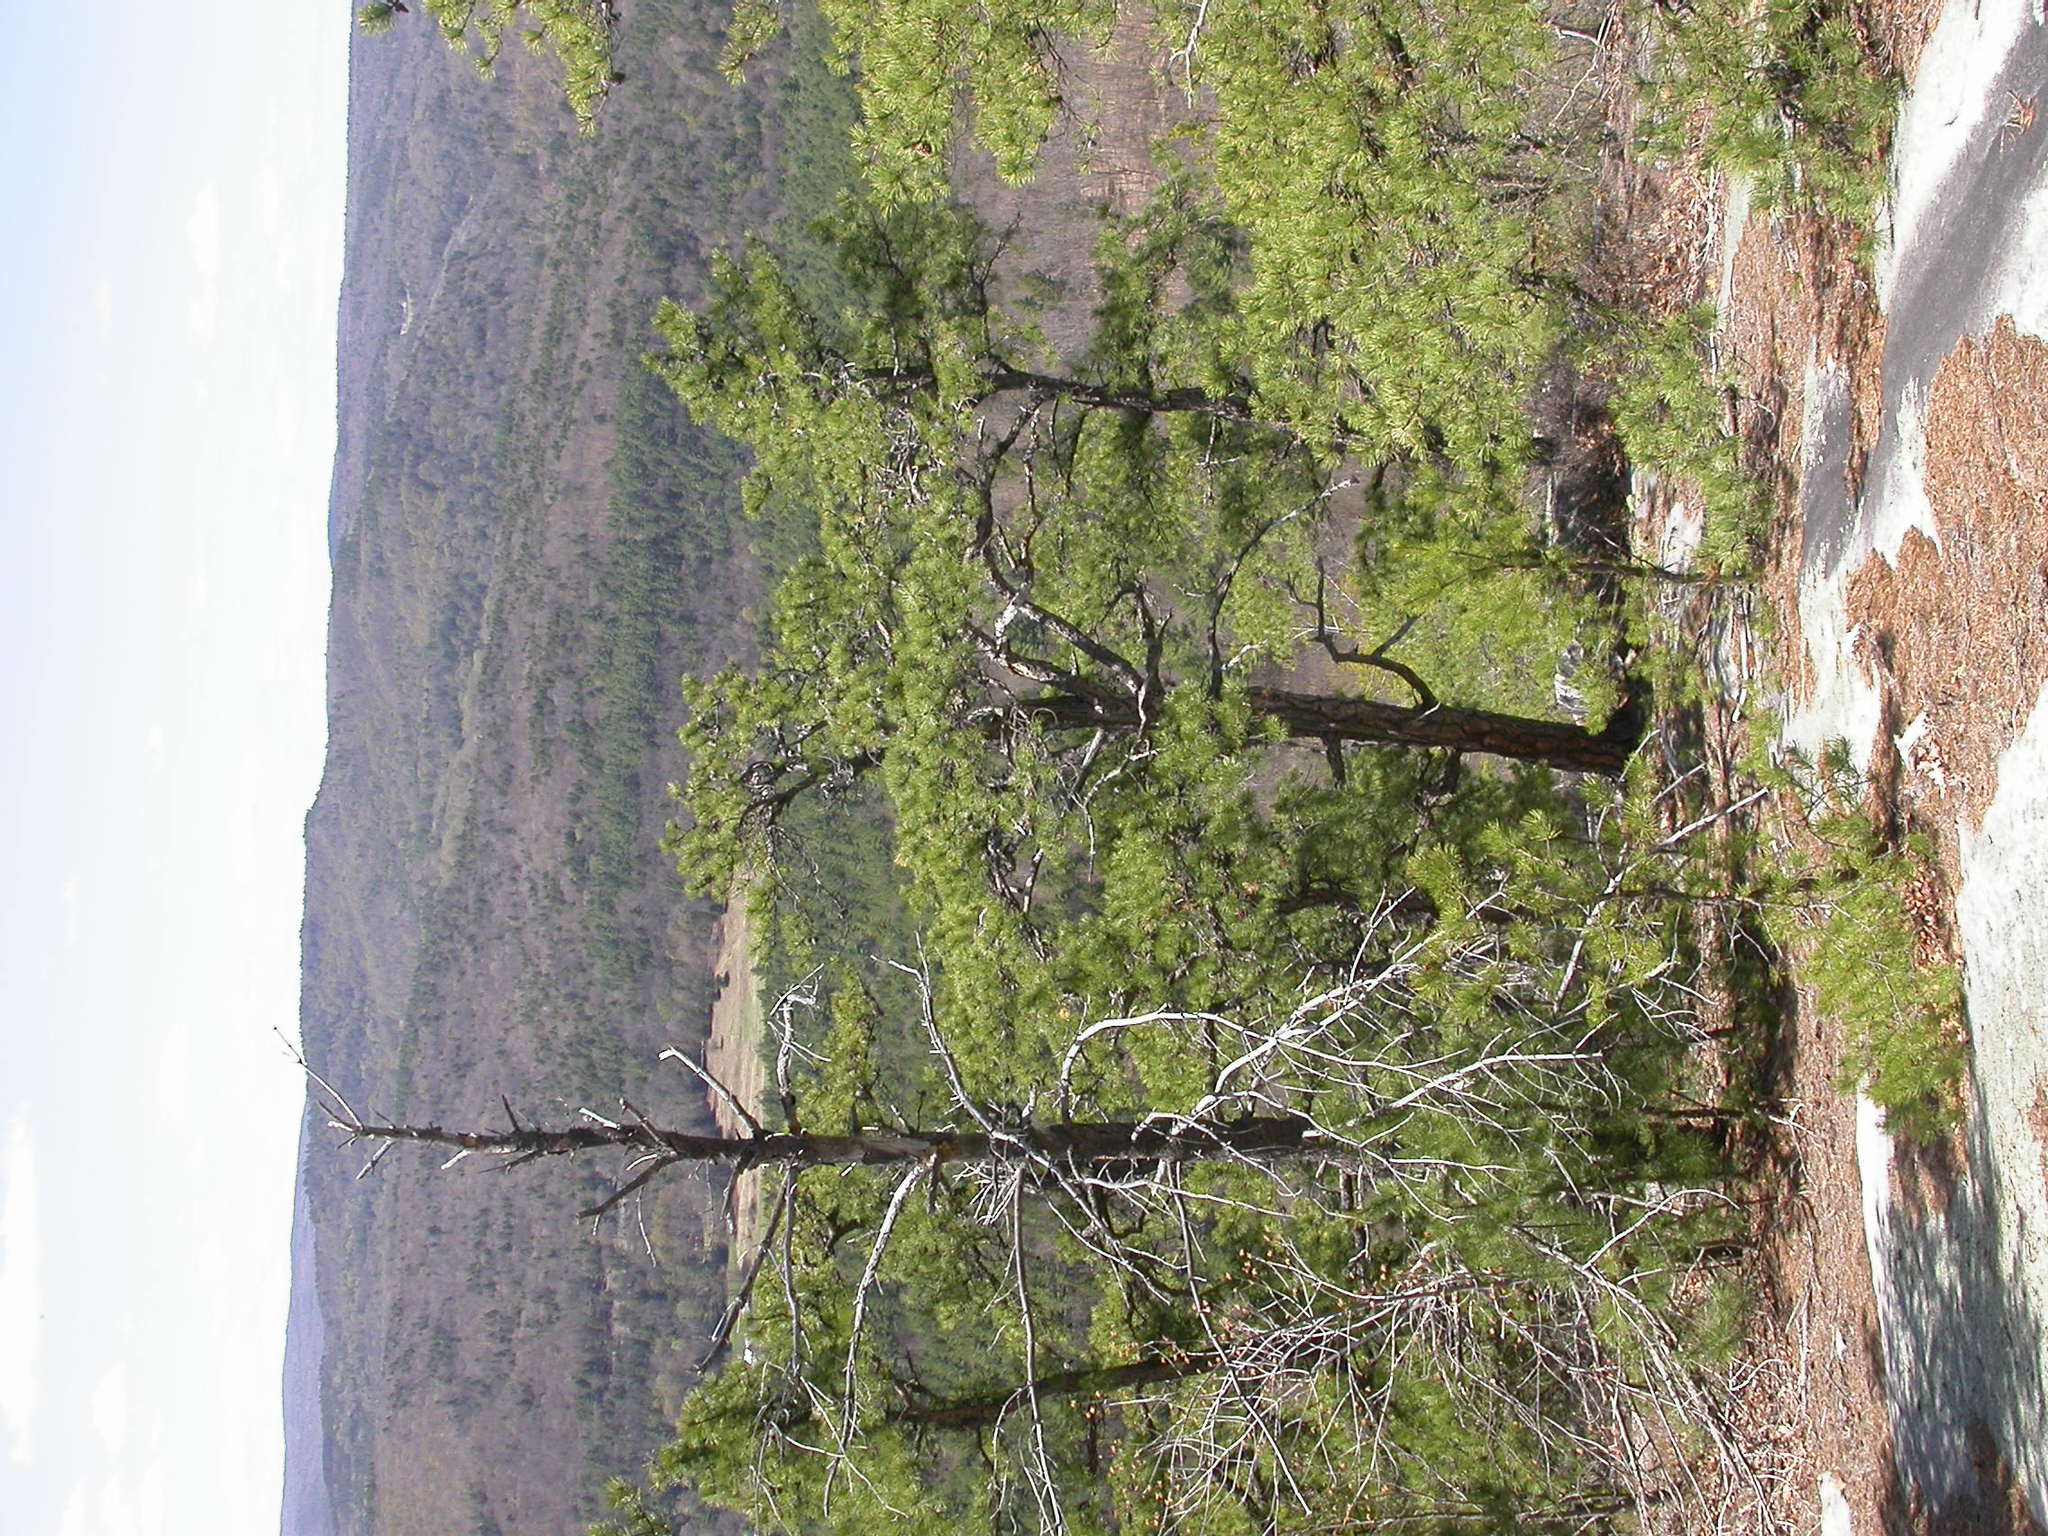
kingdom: Plantae
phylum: Tracheophyta
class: Pinopsida
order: Pinales
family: Pinaceae
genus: Pinus
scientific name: Pinus rigida
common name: Pitch pine
